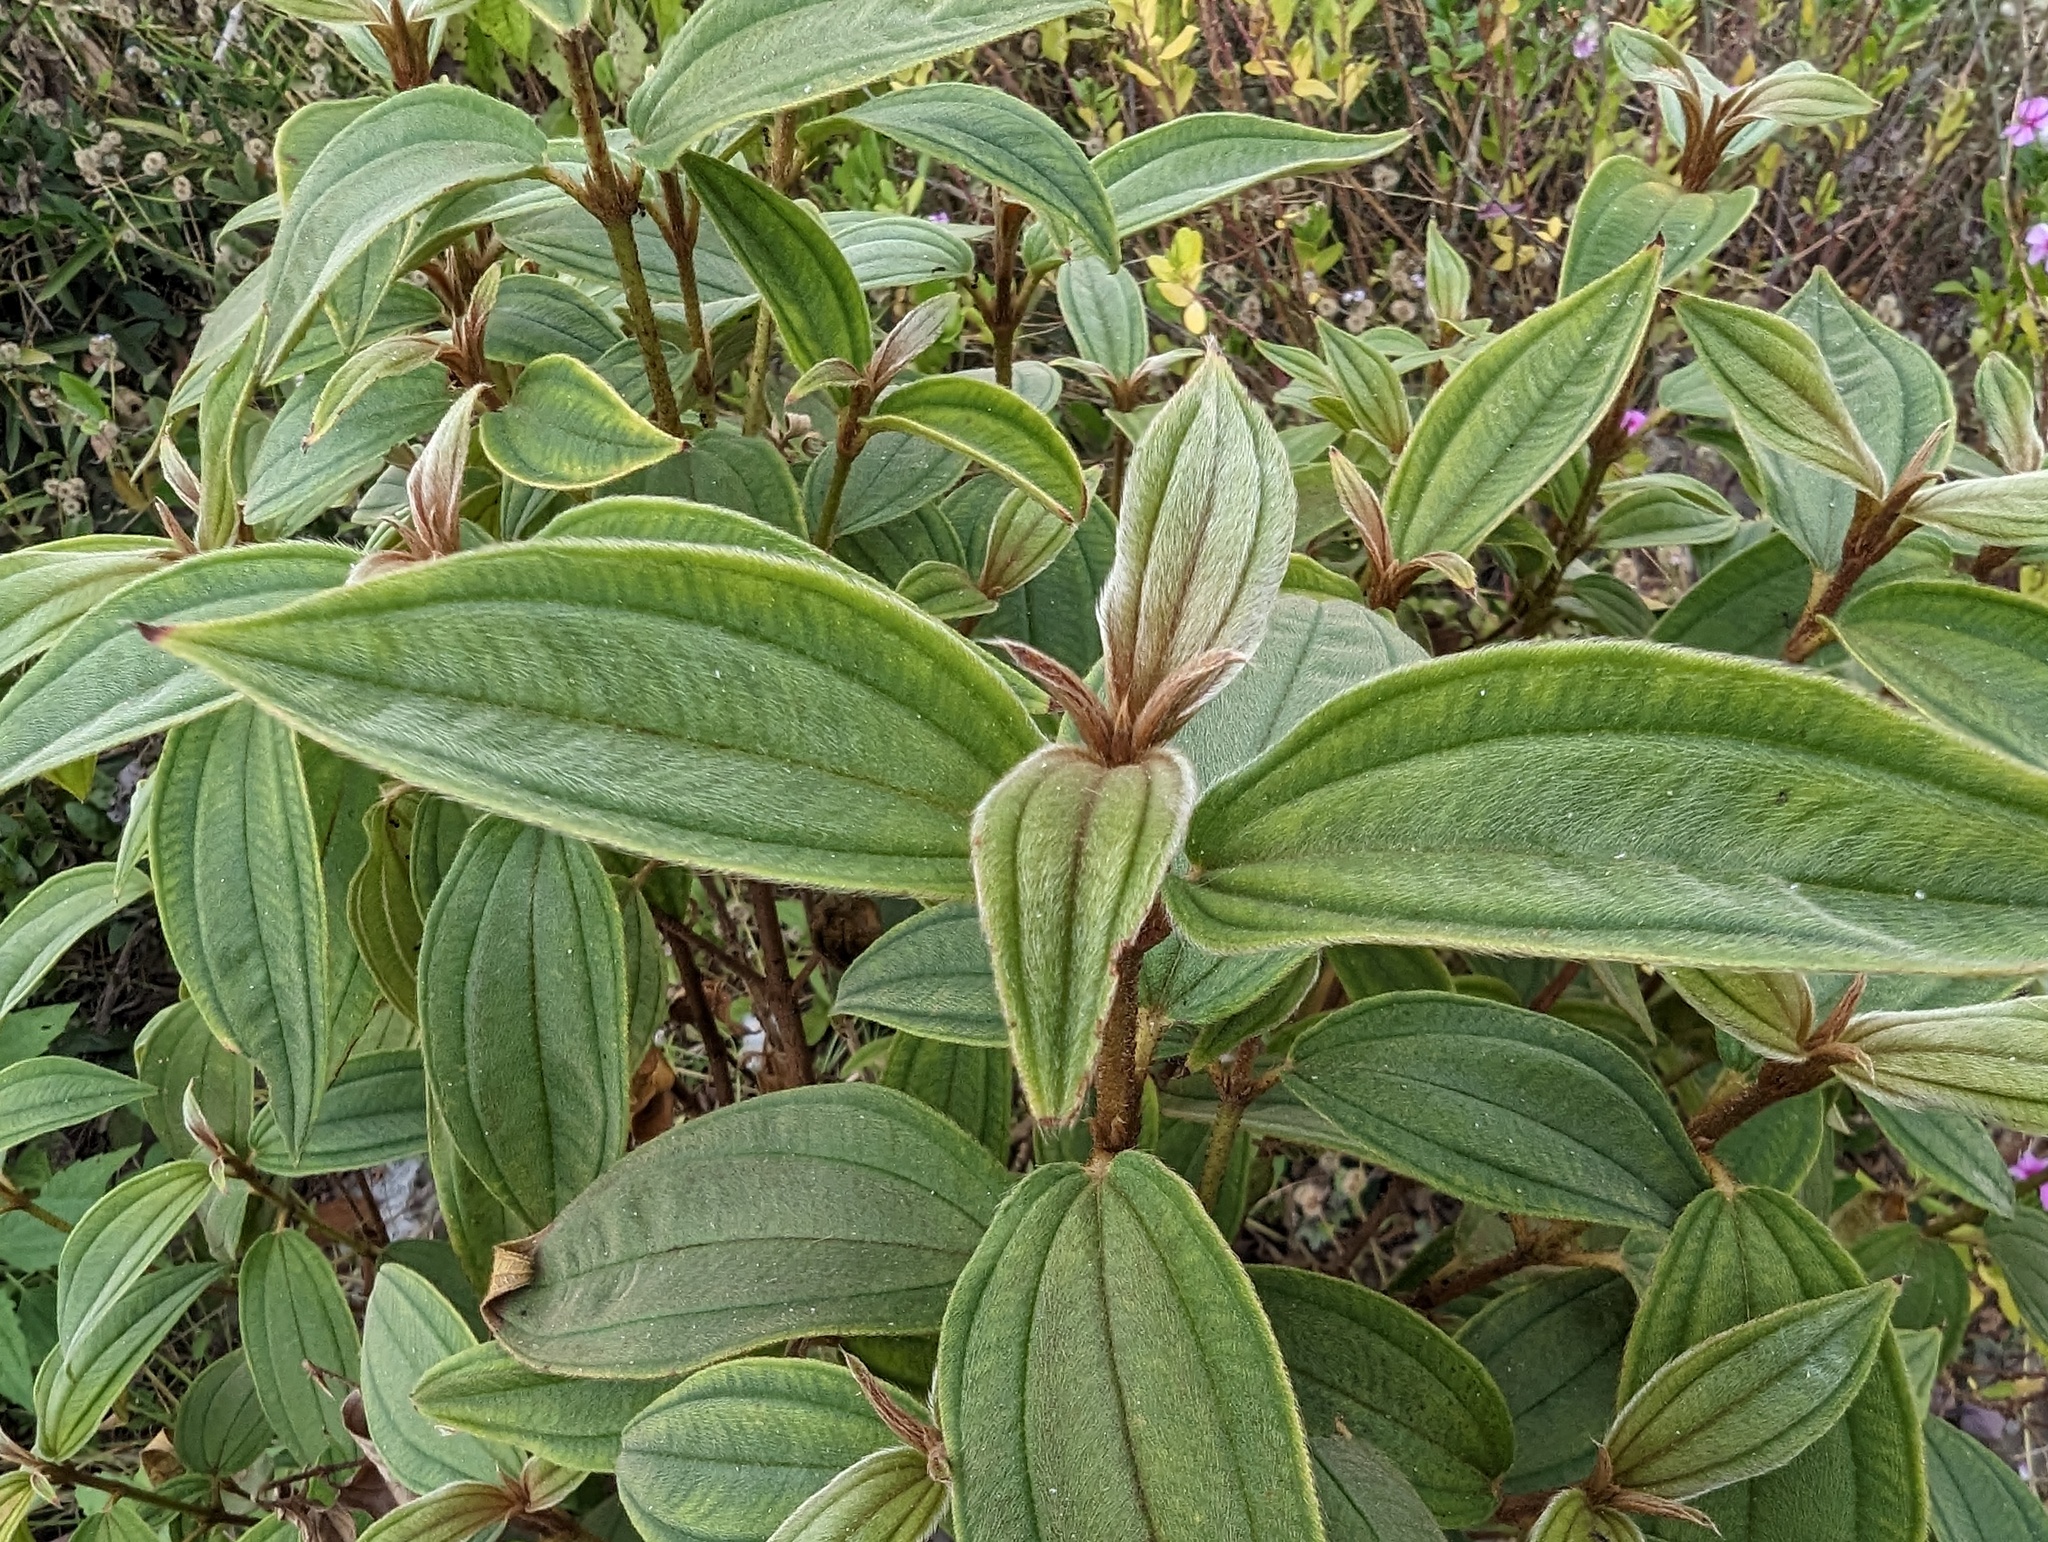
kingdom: Plantae
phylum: Tracheophyta
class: Magnoliopsida
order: Myrtales
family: Melastomataceae
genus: Melastoma
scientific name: Melastoma malabathricum
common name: Indian-rhododendron
